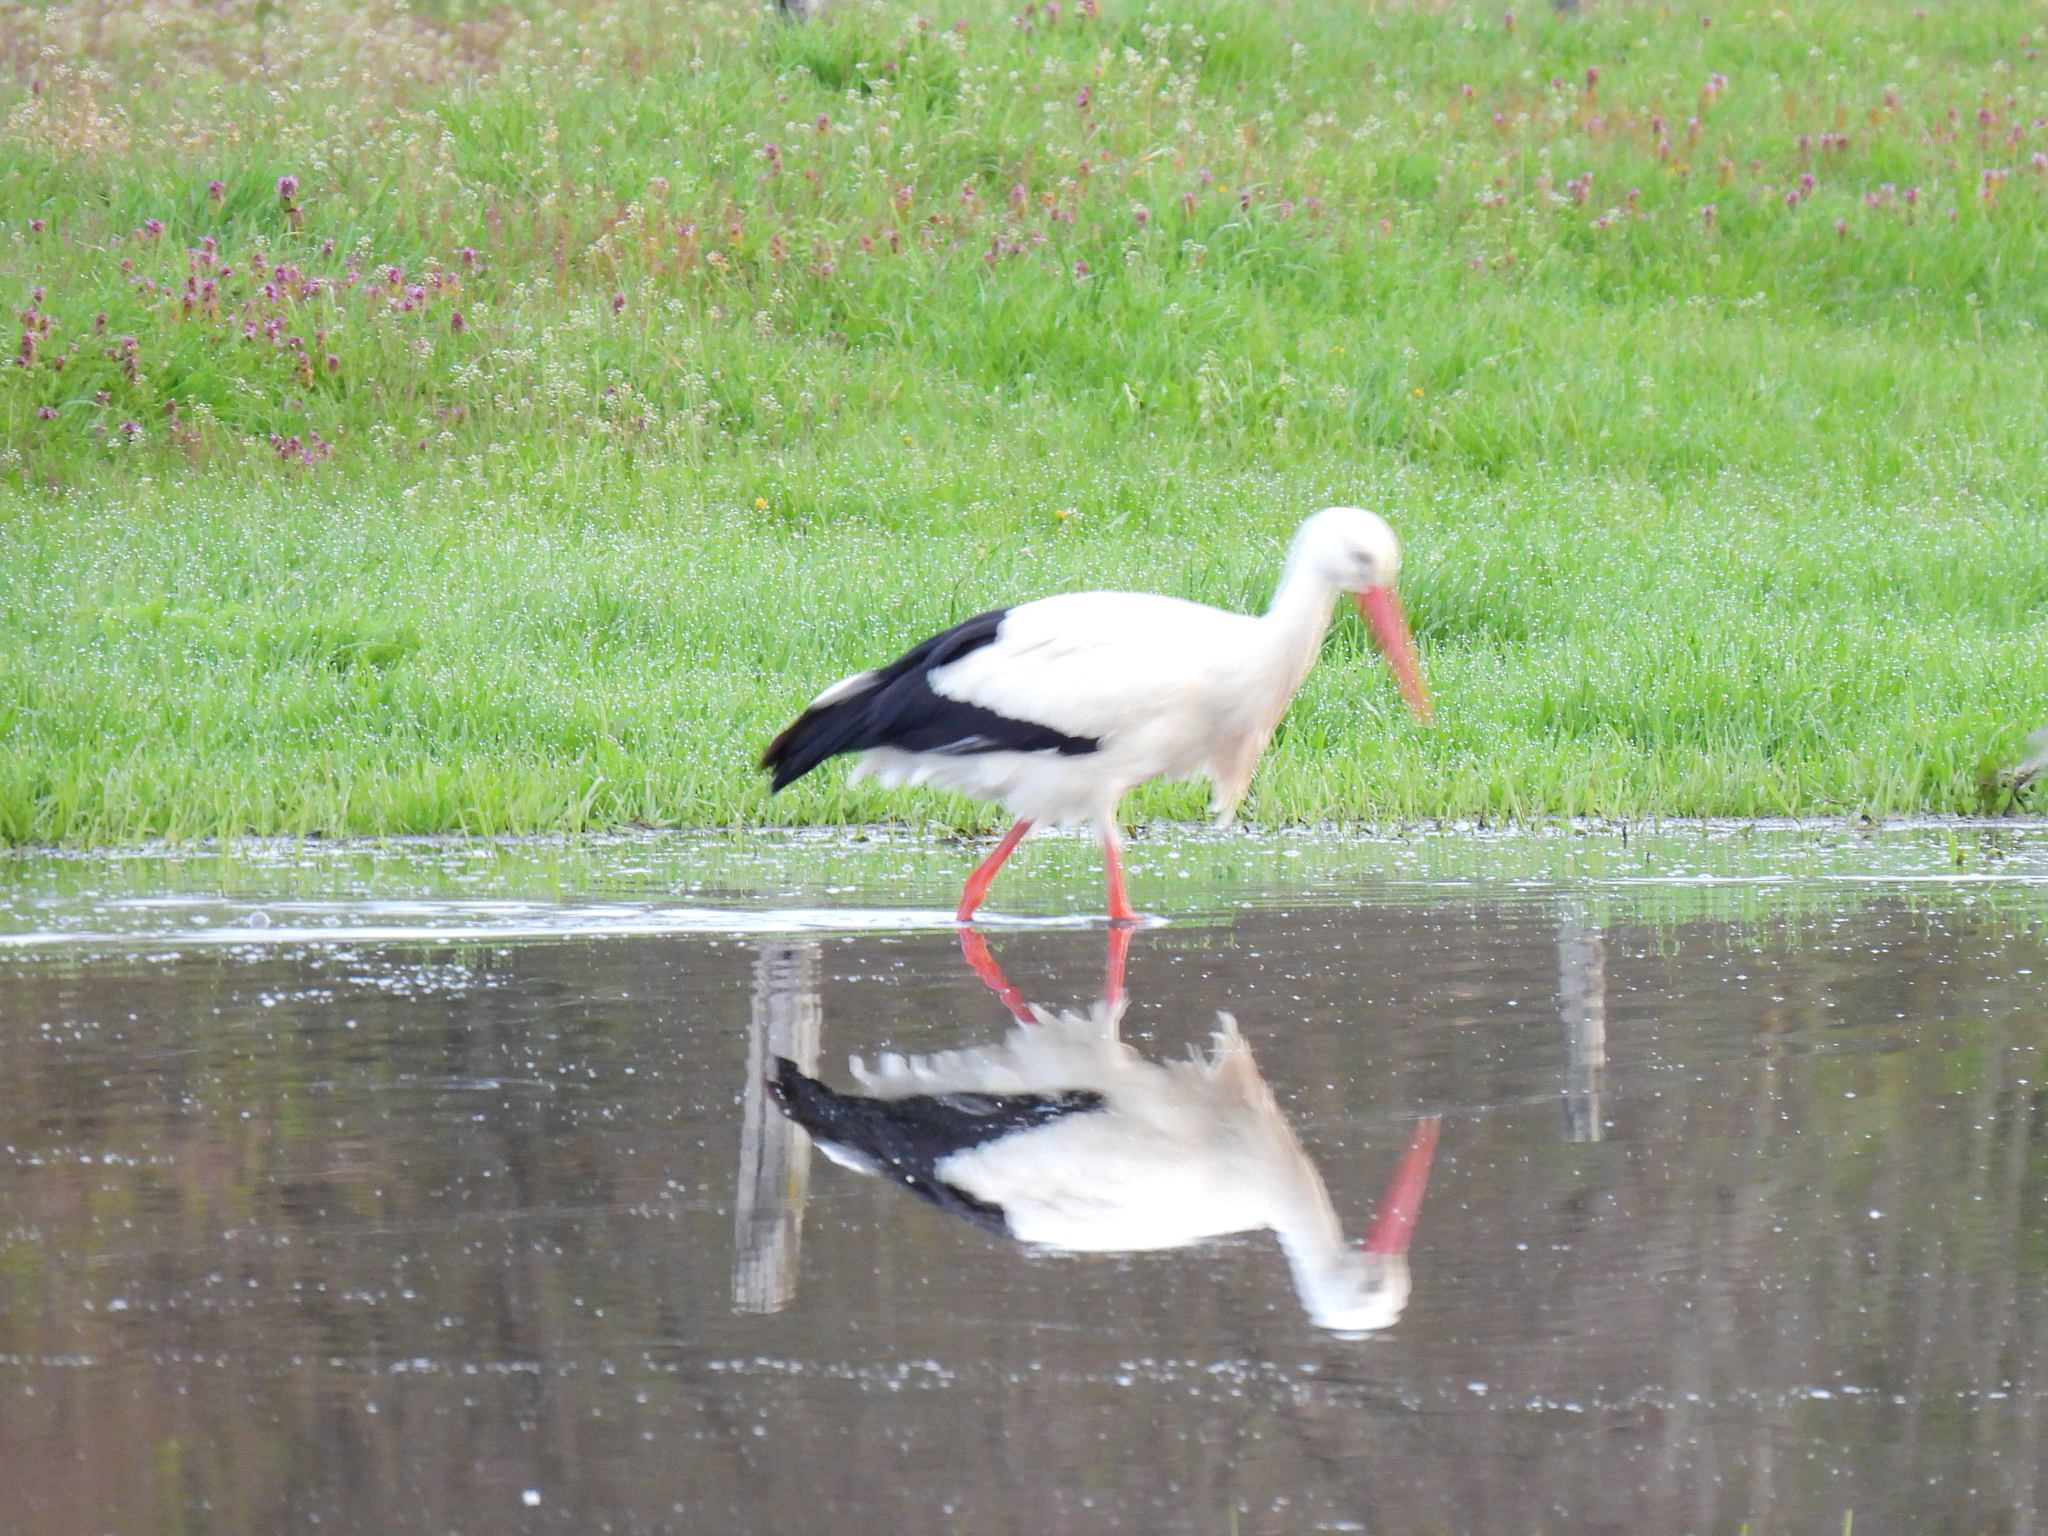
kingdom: Animalia
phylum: Chordata
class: Aves
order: Ciconiiformes
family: Ciconiidae
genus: Ciconia
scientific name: Ciconia ciconia
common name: White stork
